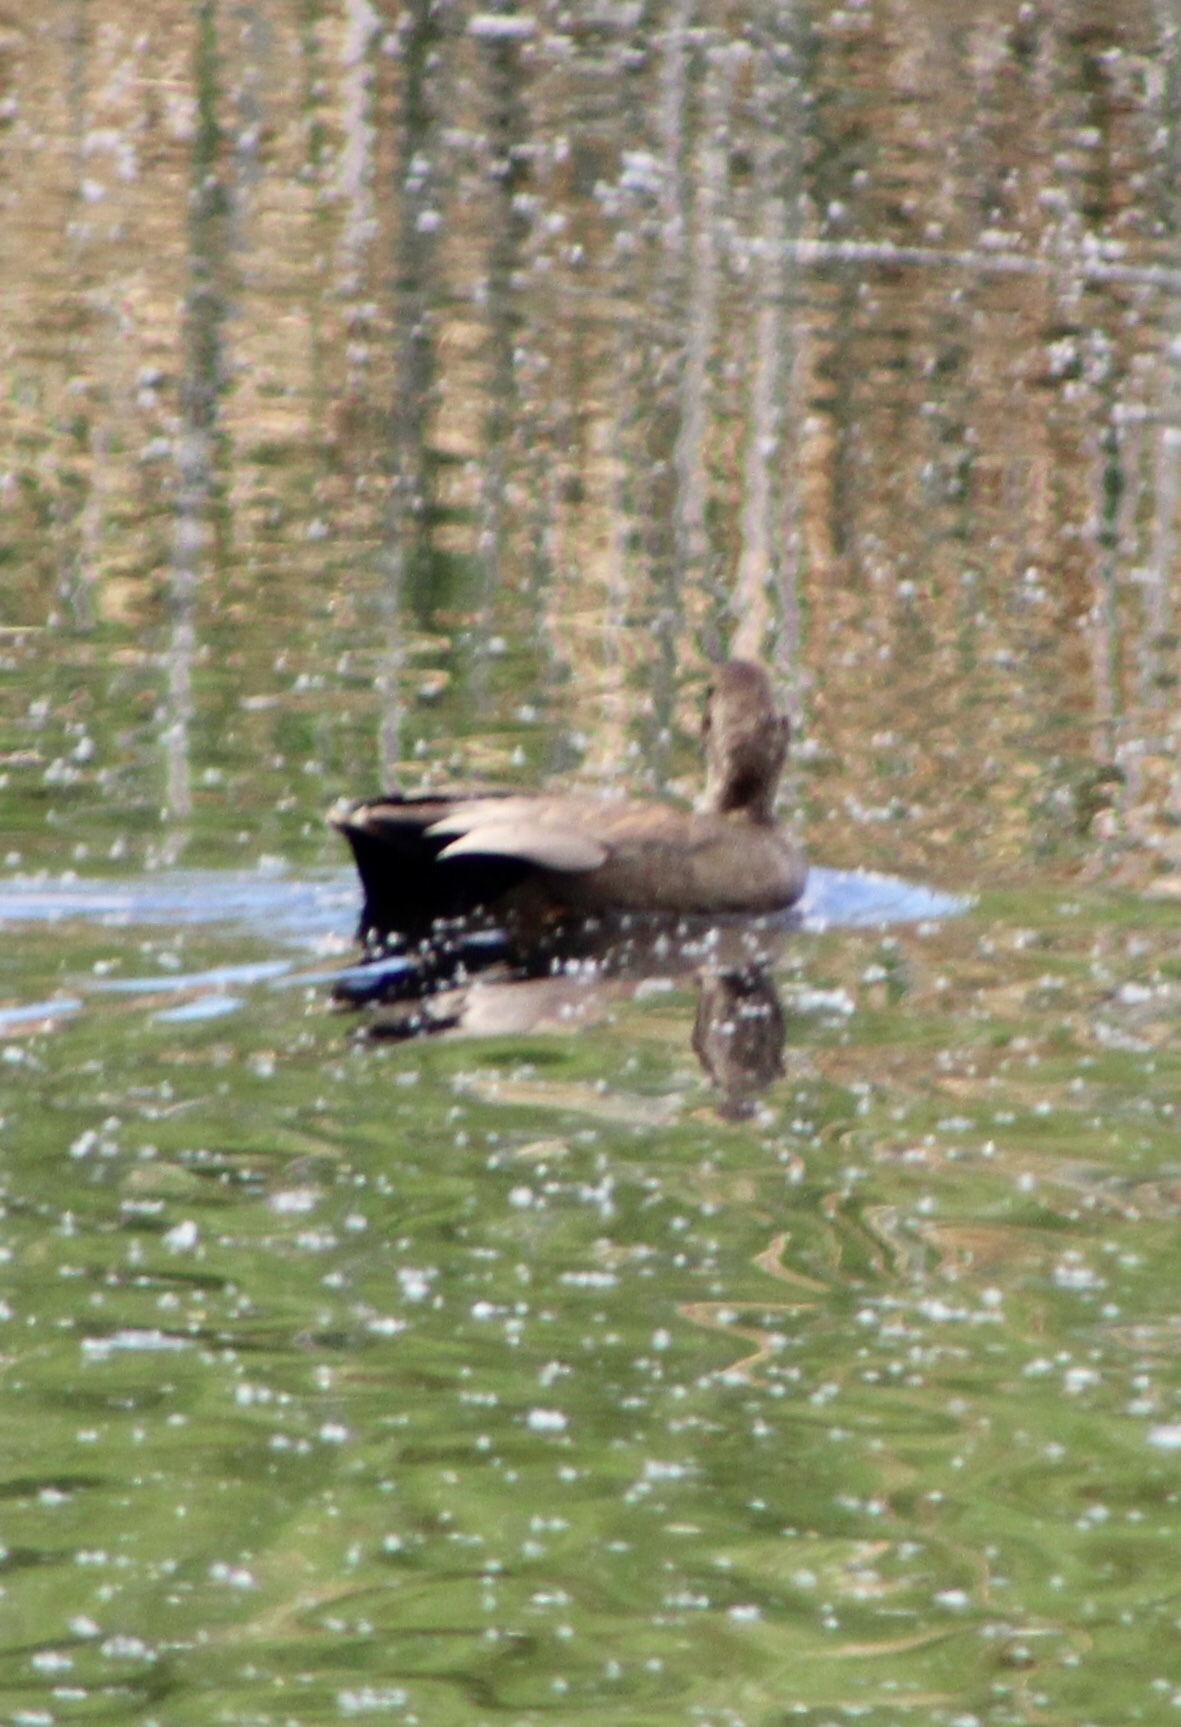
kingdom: Animalia
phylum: Chordata
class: Aves
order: Anseriformes
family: Anatidae
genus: Mareca
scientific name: Mareca strepera
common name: Gadwall
